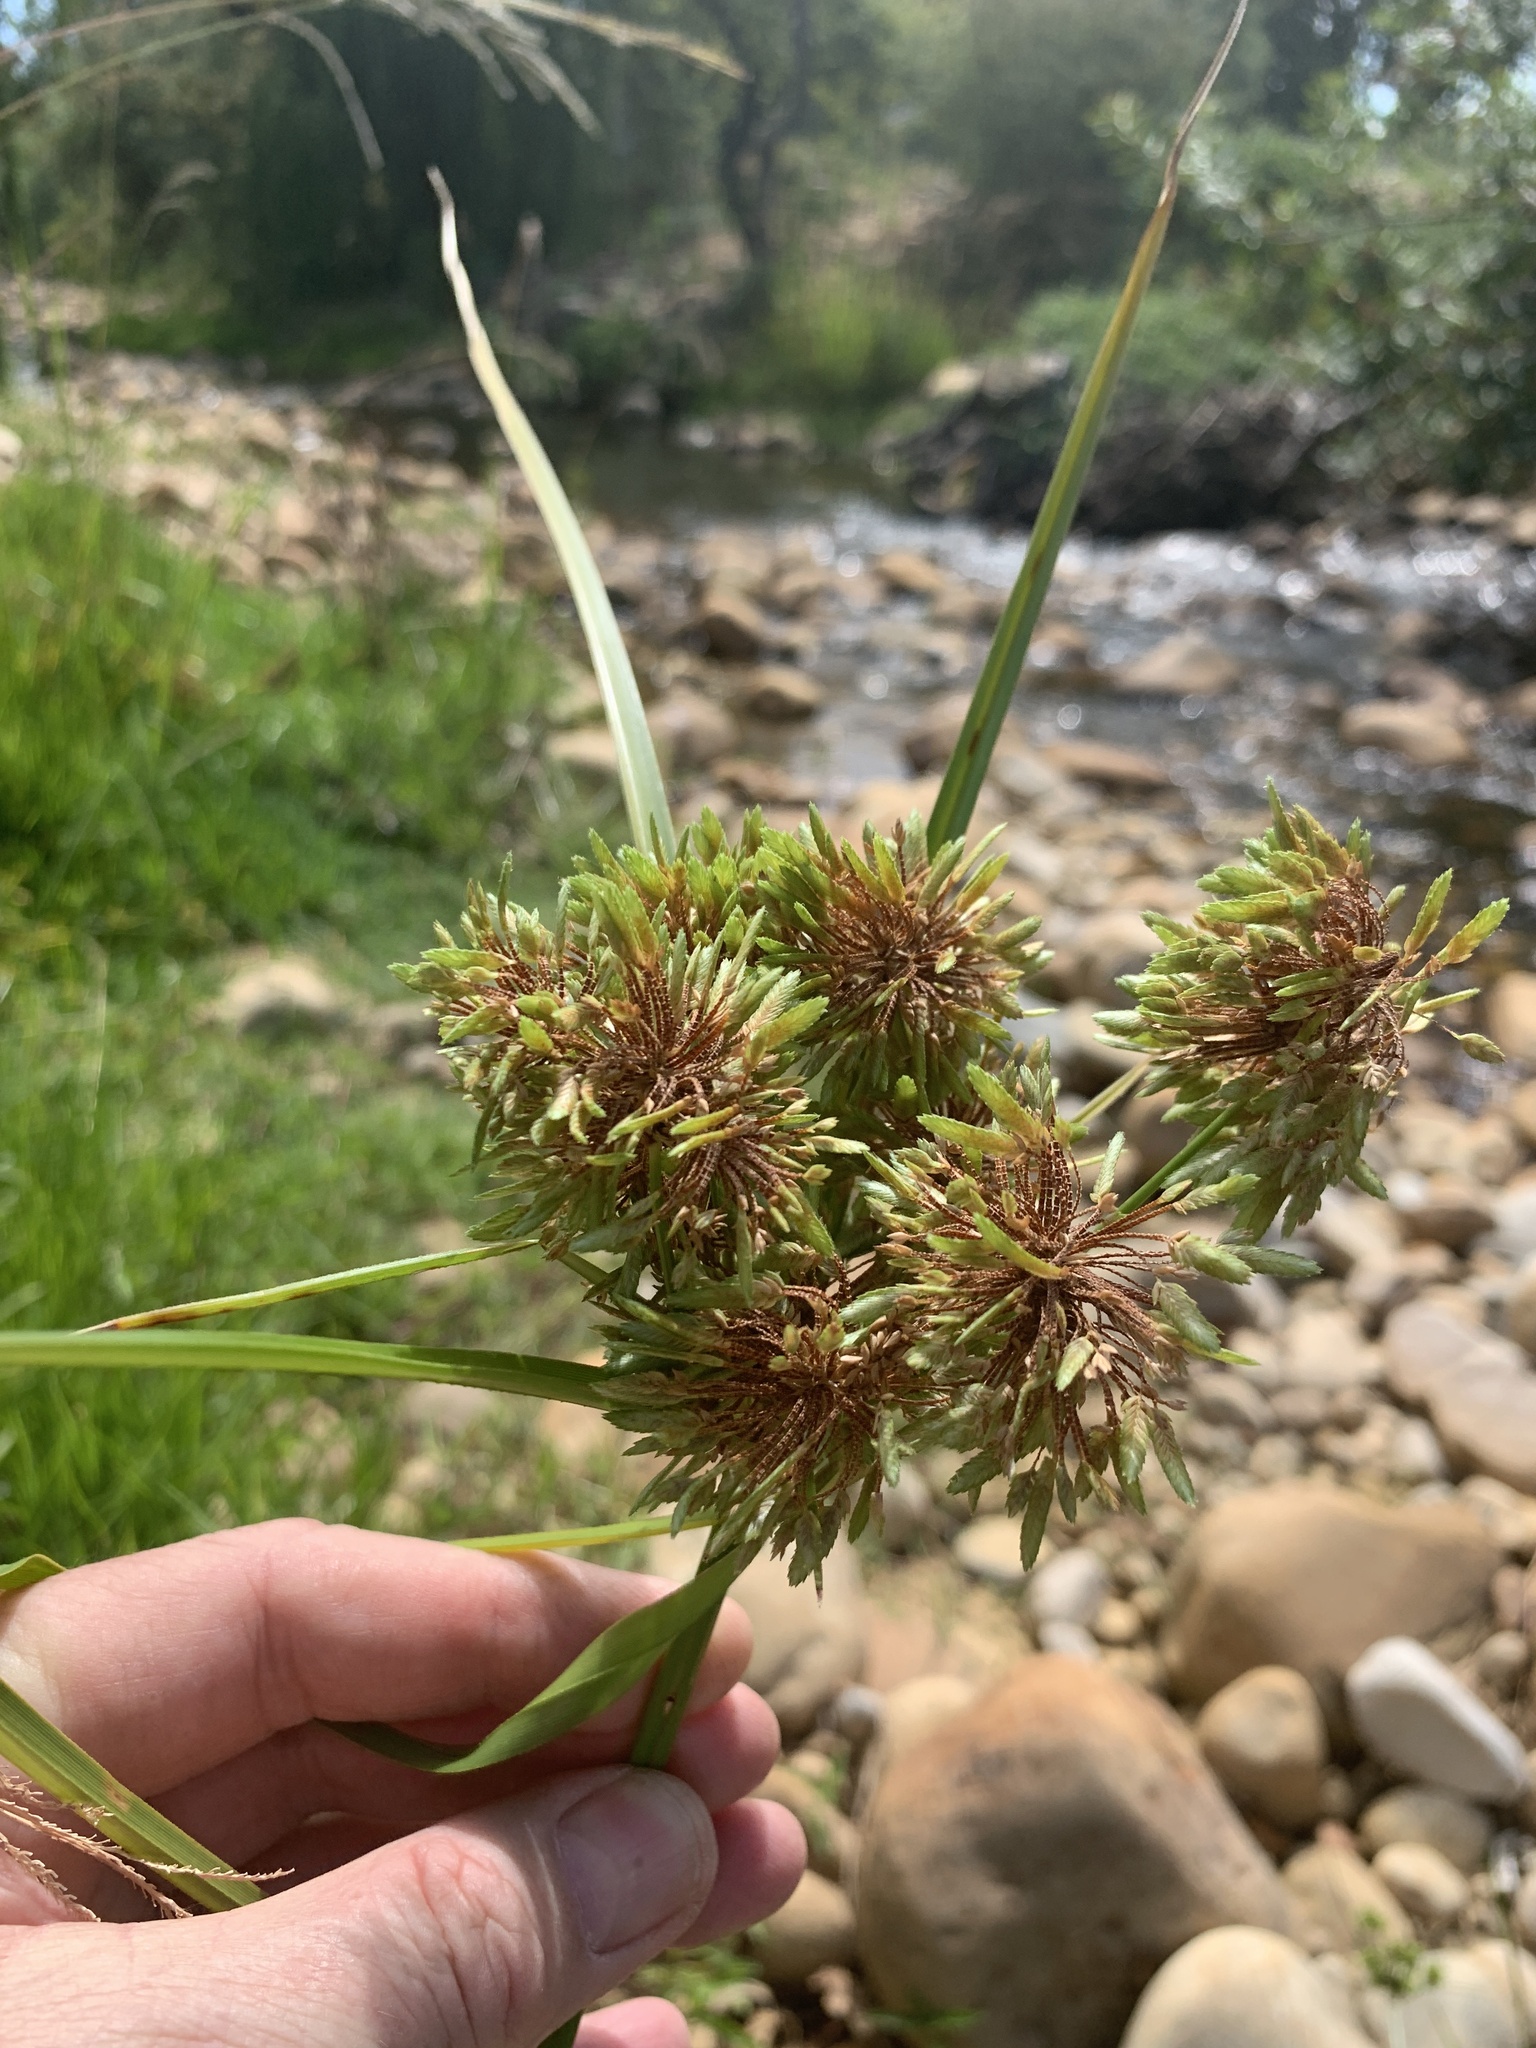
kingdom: Plantae
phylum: Tracheophyta
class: Liliopsida
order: Poales
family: Cyperaceae
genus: Cyperus
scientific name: Cyperus eragrostis
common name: Tall flatsedge
